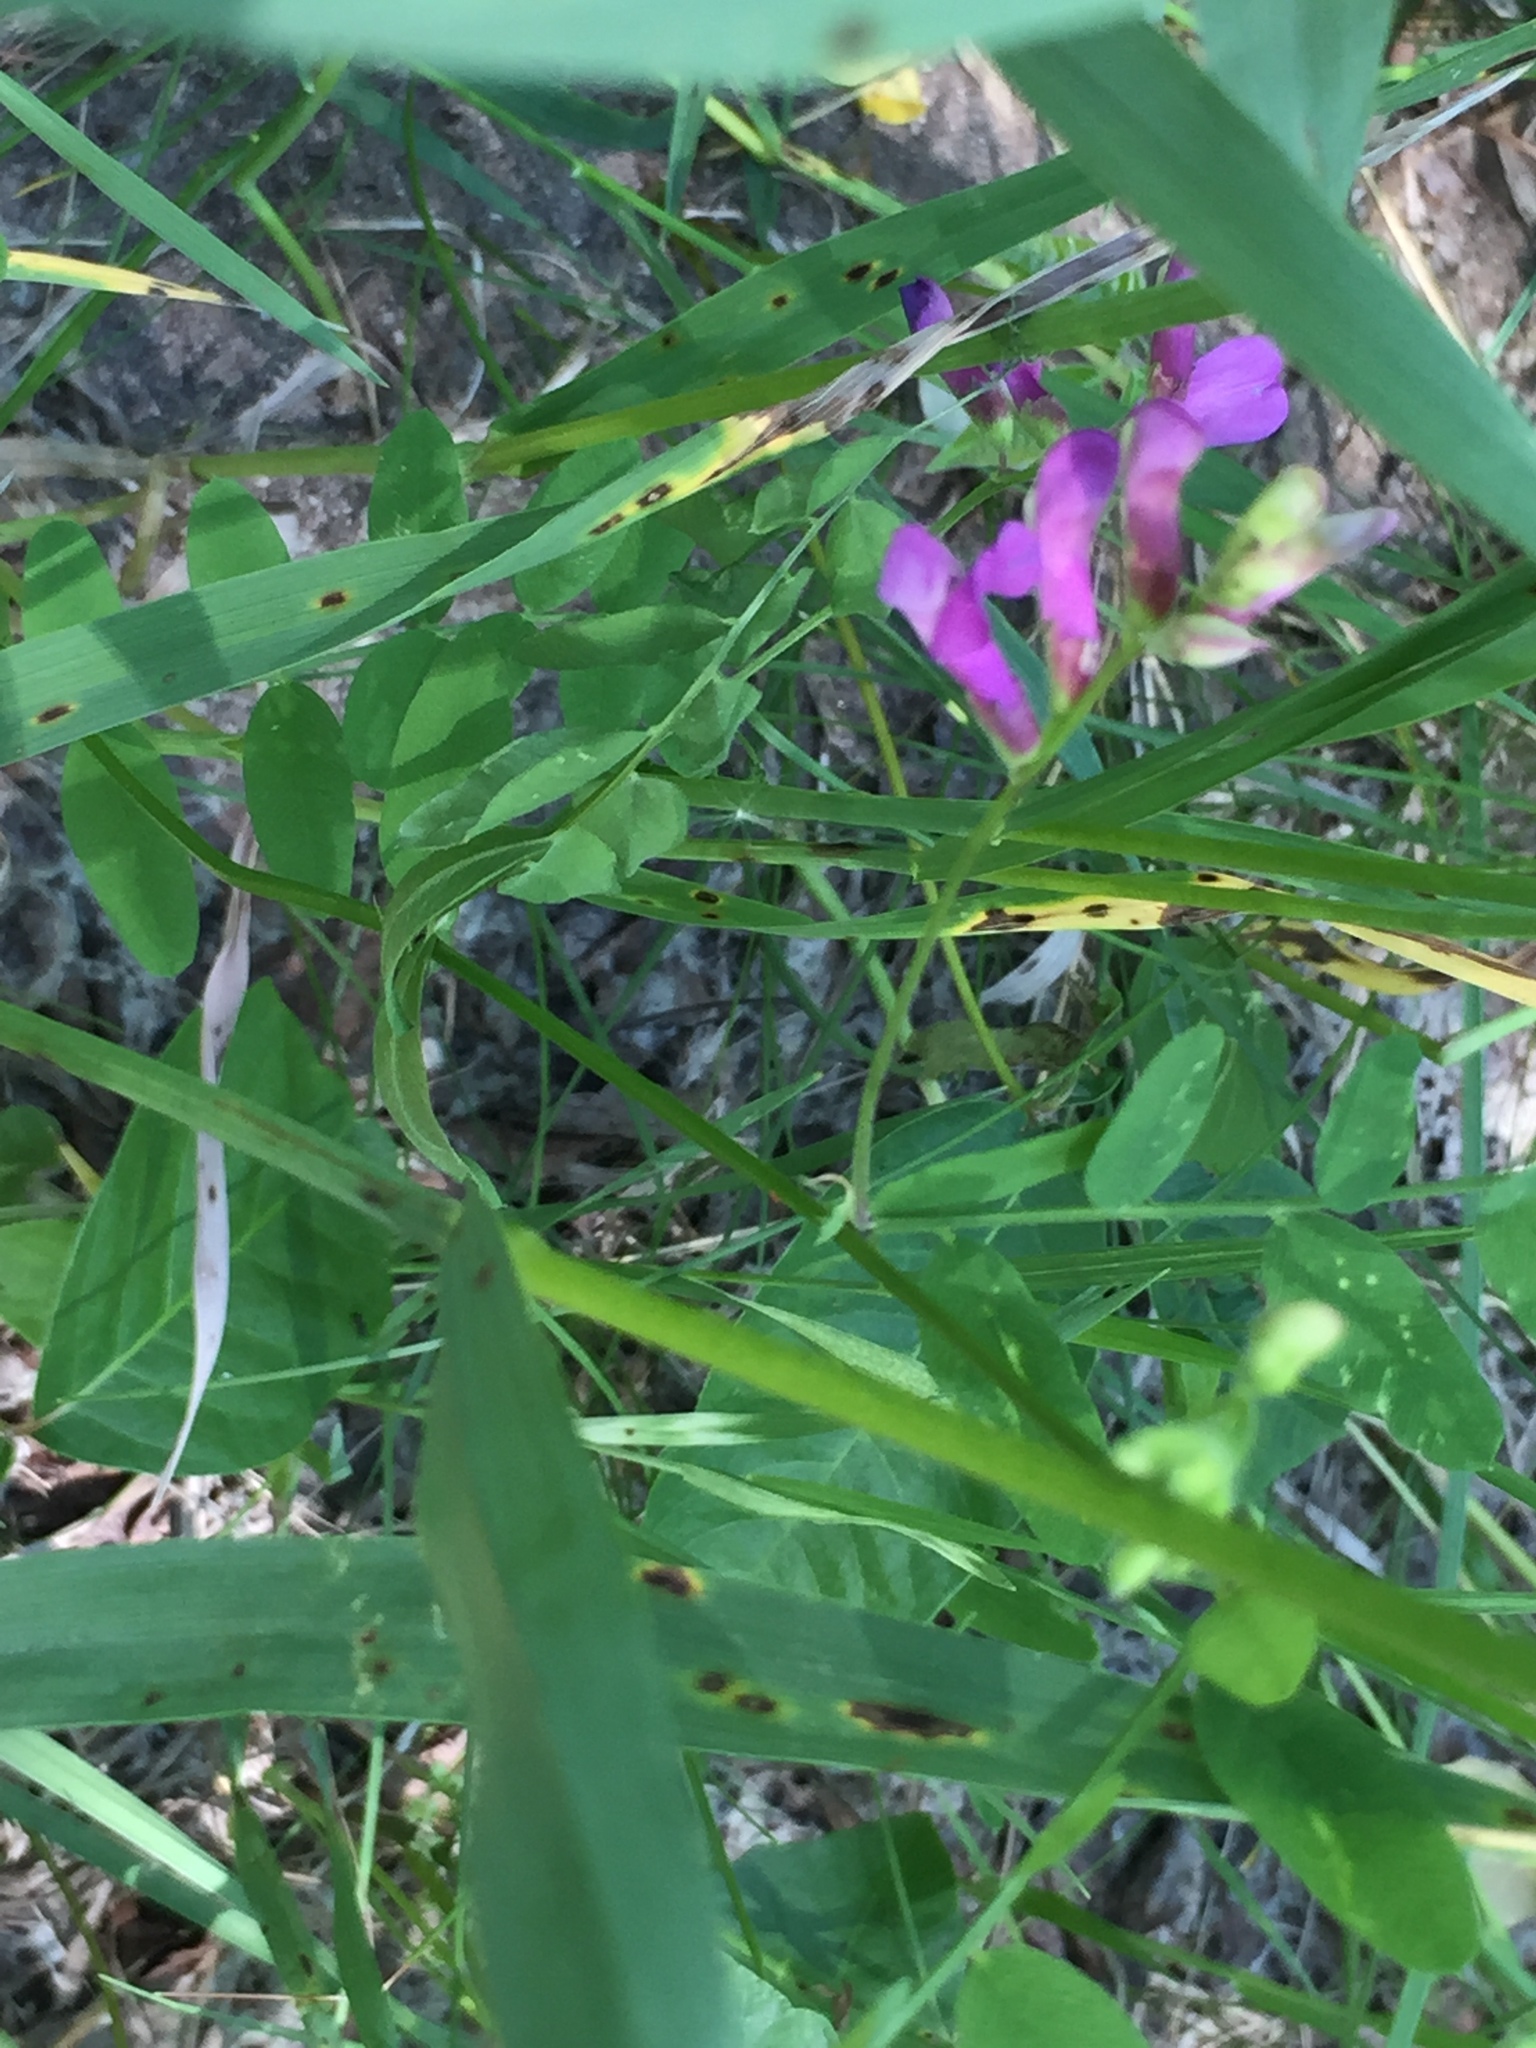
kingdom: Plantae
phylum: Tracheophyta
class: Magnoliopsida
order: Fabales
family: Fabaceae
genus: Vicia
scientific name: Vicia americana
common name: American vetch
